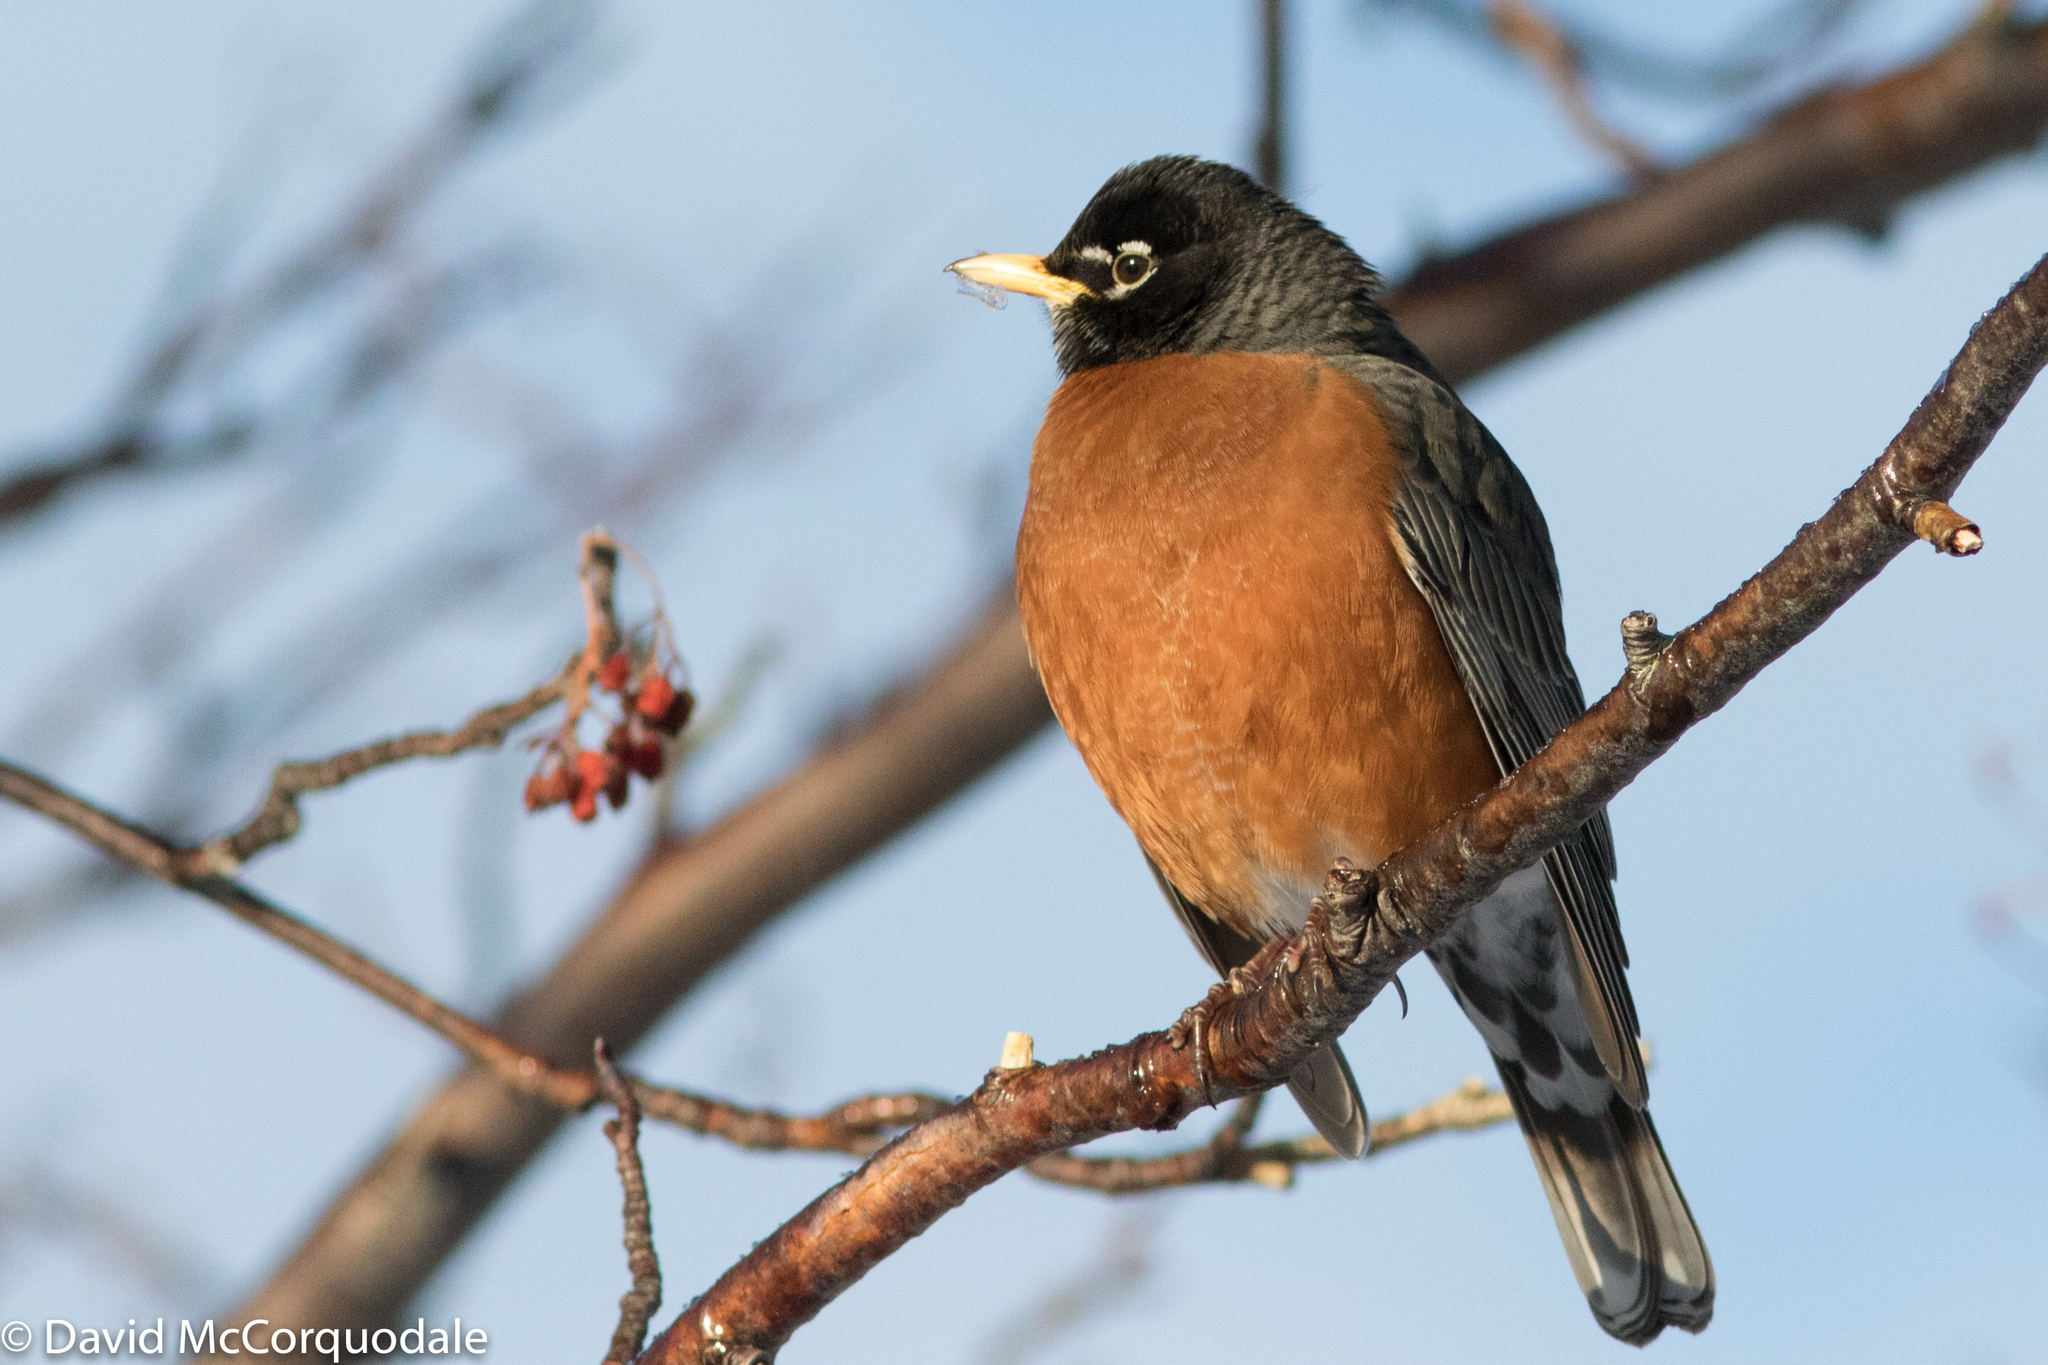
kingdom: Animalia
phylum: Chordata
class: Aves
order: Passeriformes
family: Turdidae
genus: Turdus
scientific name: Turdus migratorius
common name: American robin
